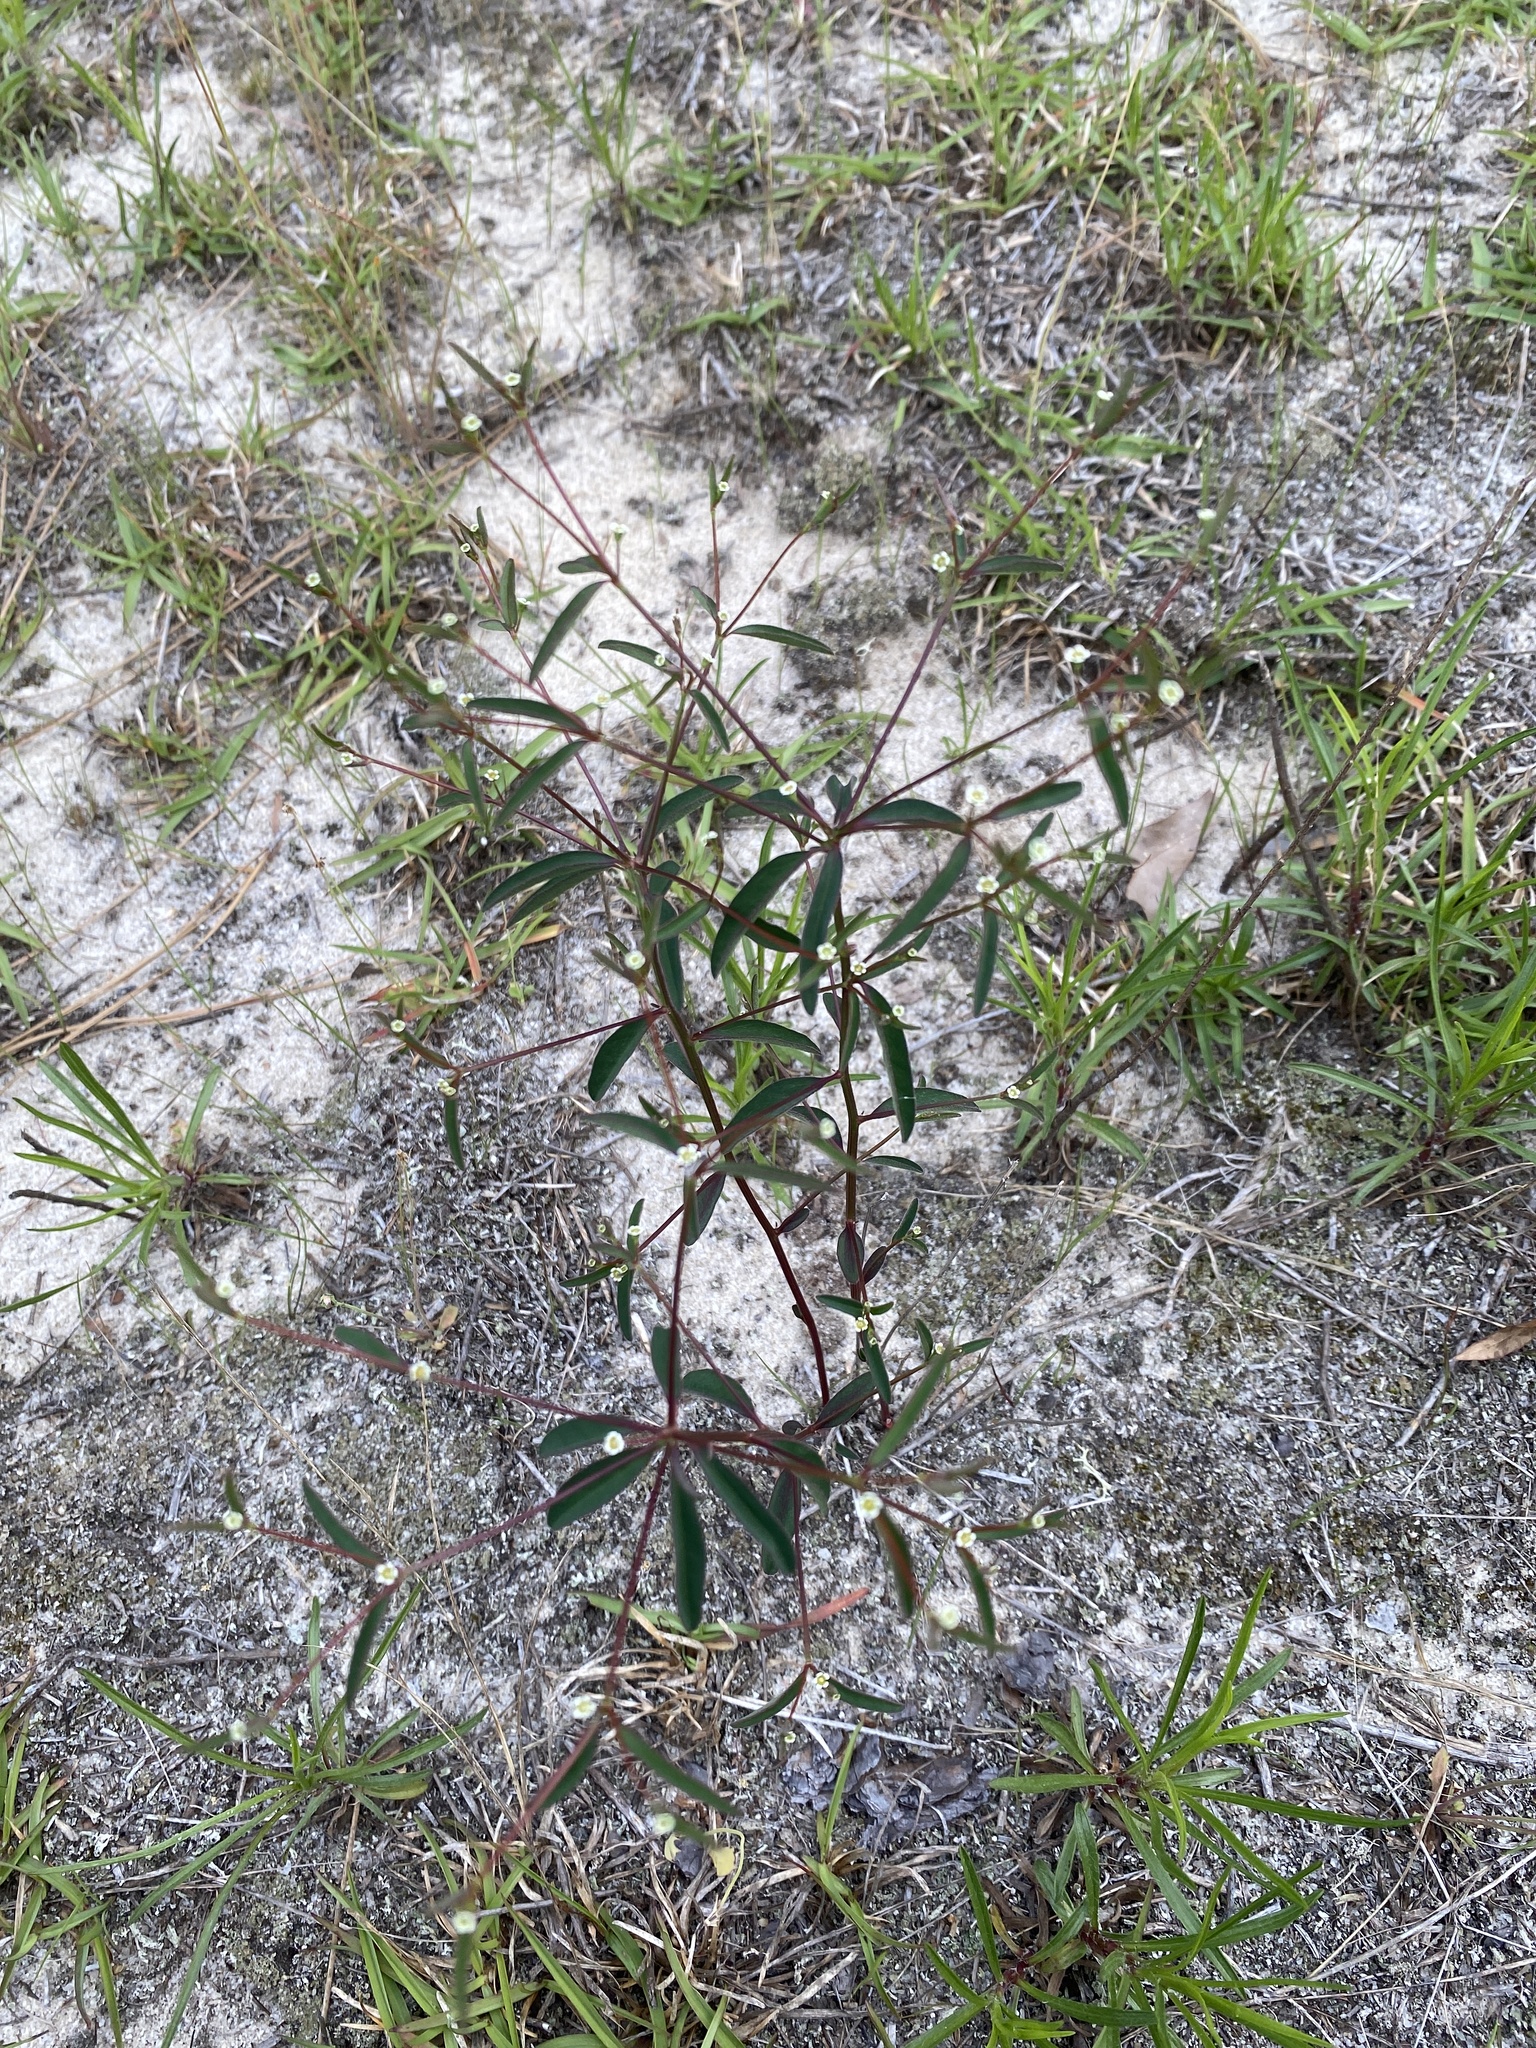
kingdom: Plantae
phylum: Tracheophyta
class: Magnoliopsida
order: Malpighiales
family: Euphorbiaceae
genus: Euphorbia
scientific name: Euphorbia curtisii
